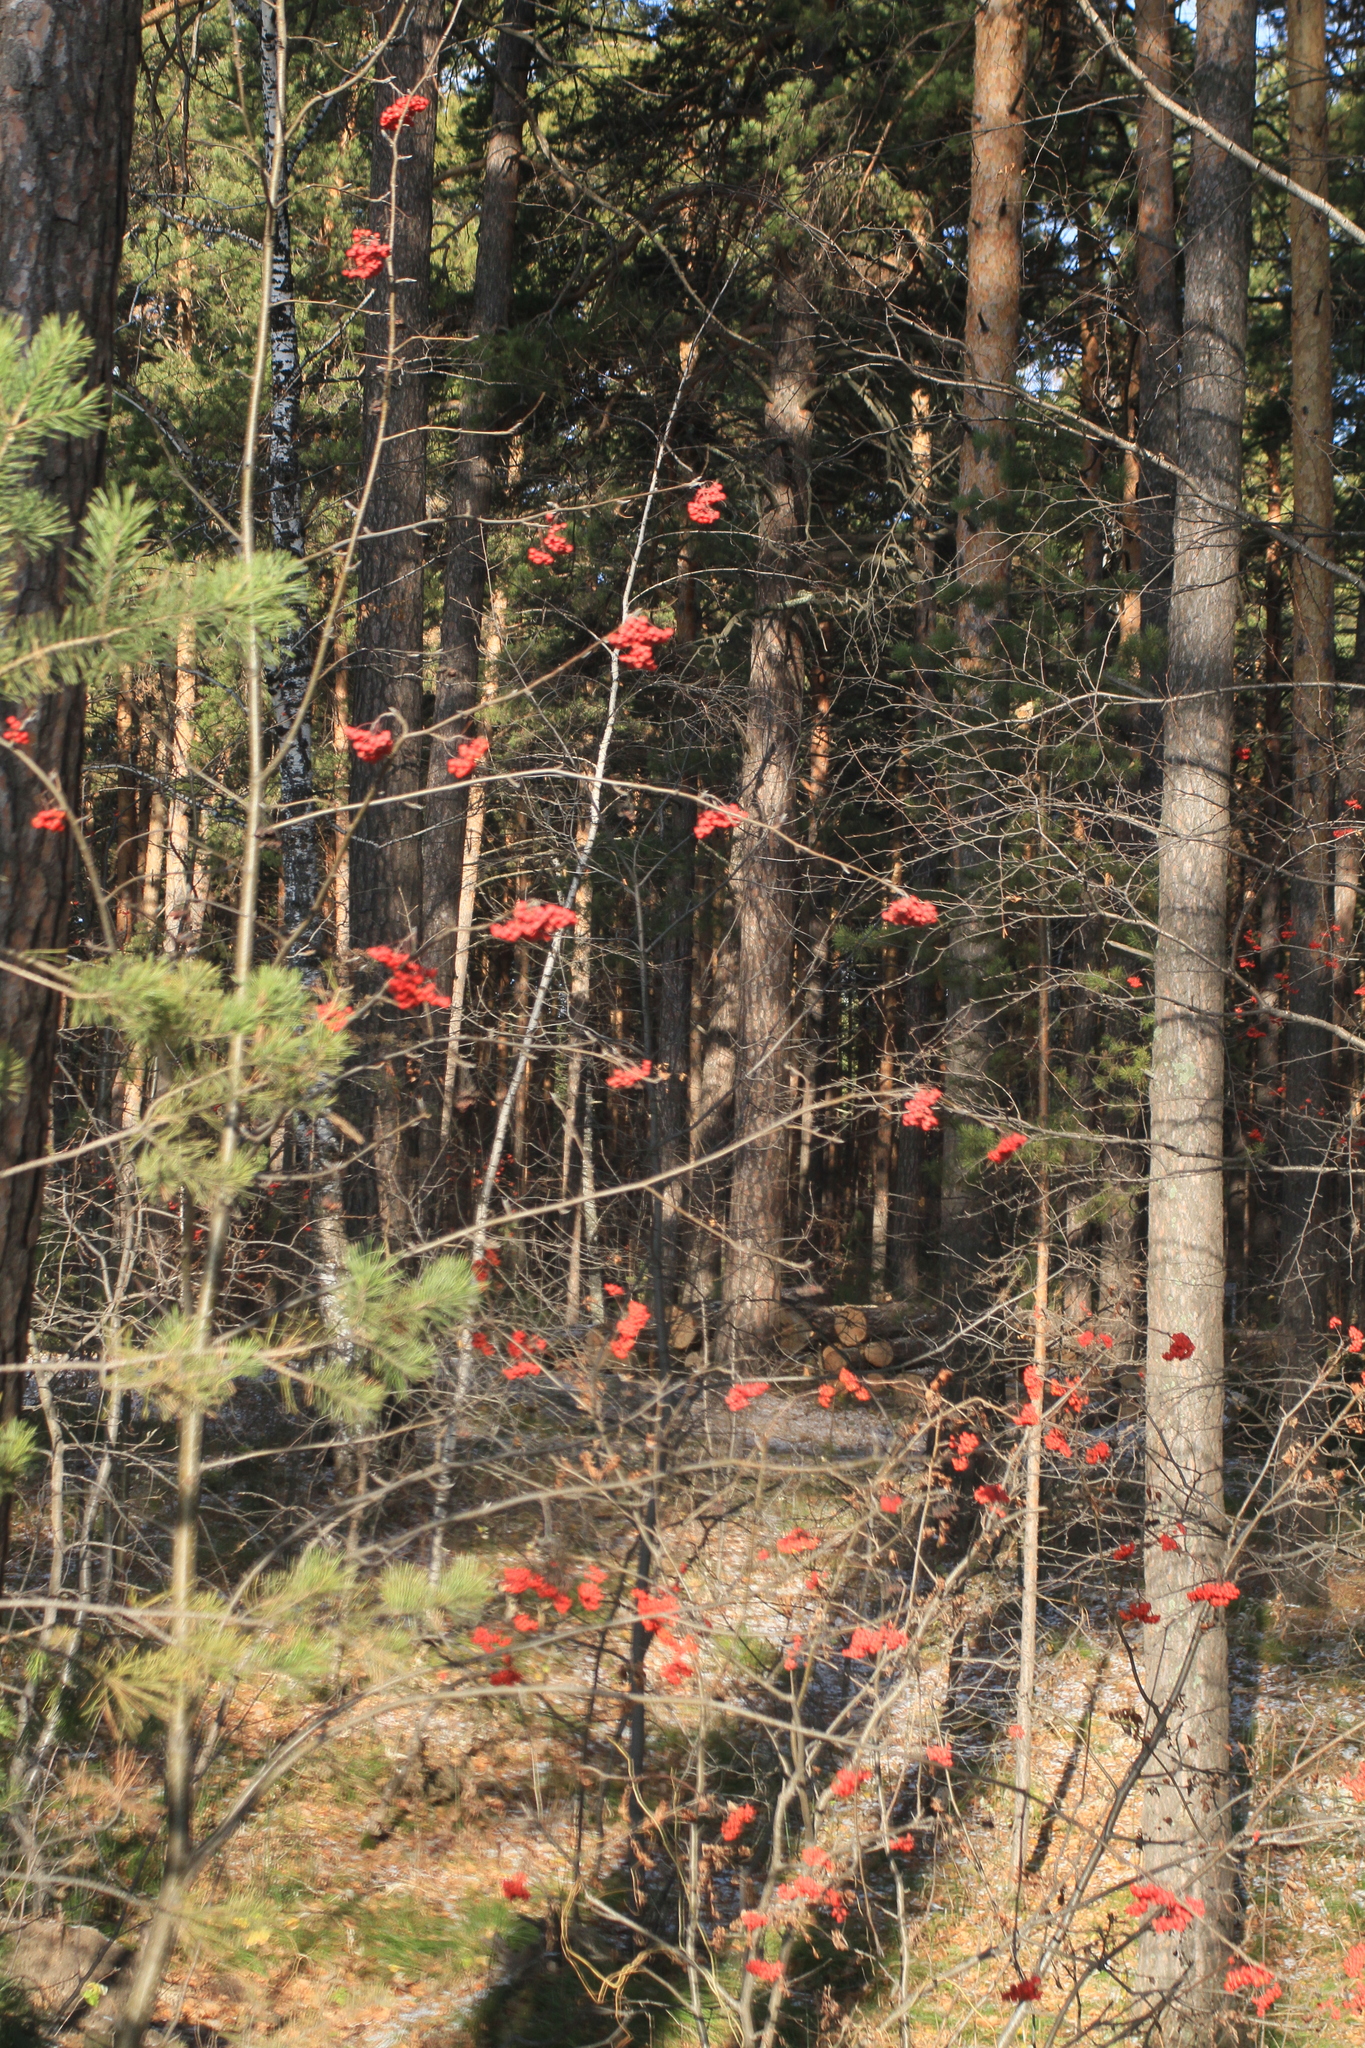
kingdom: Plantae
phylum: Tracheophyta
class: Magnoliopsida
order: Rosales
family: Rosaceae
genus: Sorbus
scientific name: Sorbus aucuparia
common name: Rowan
